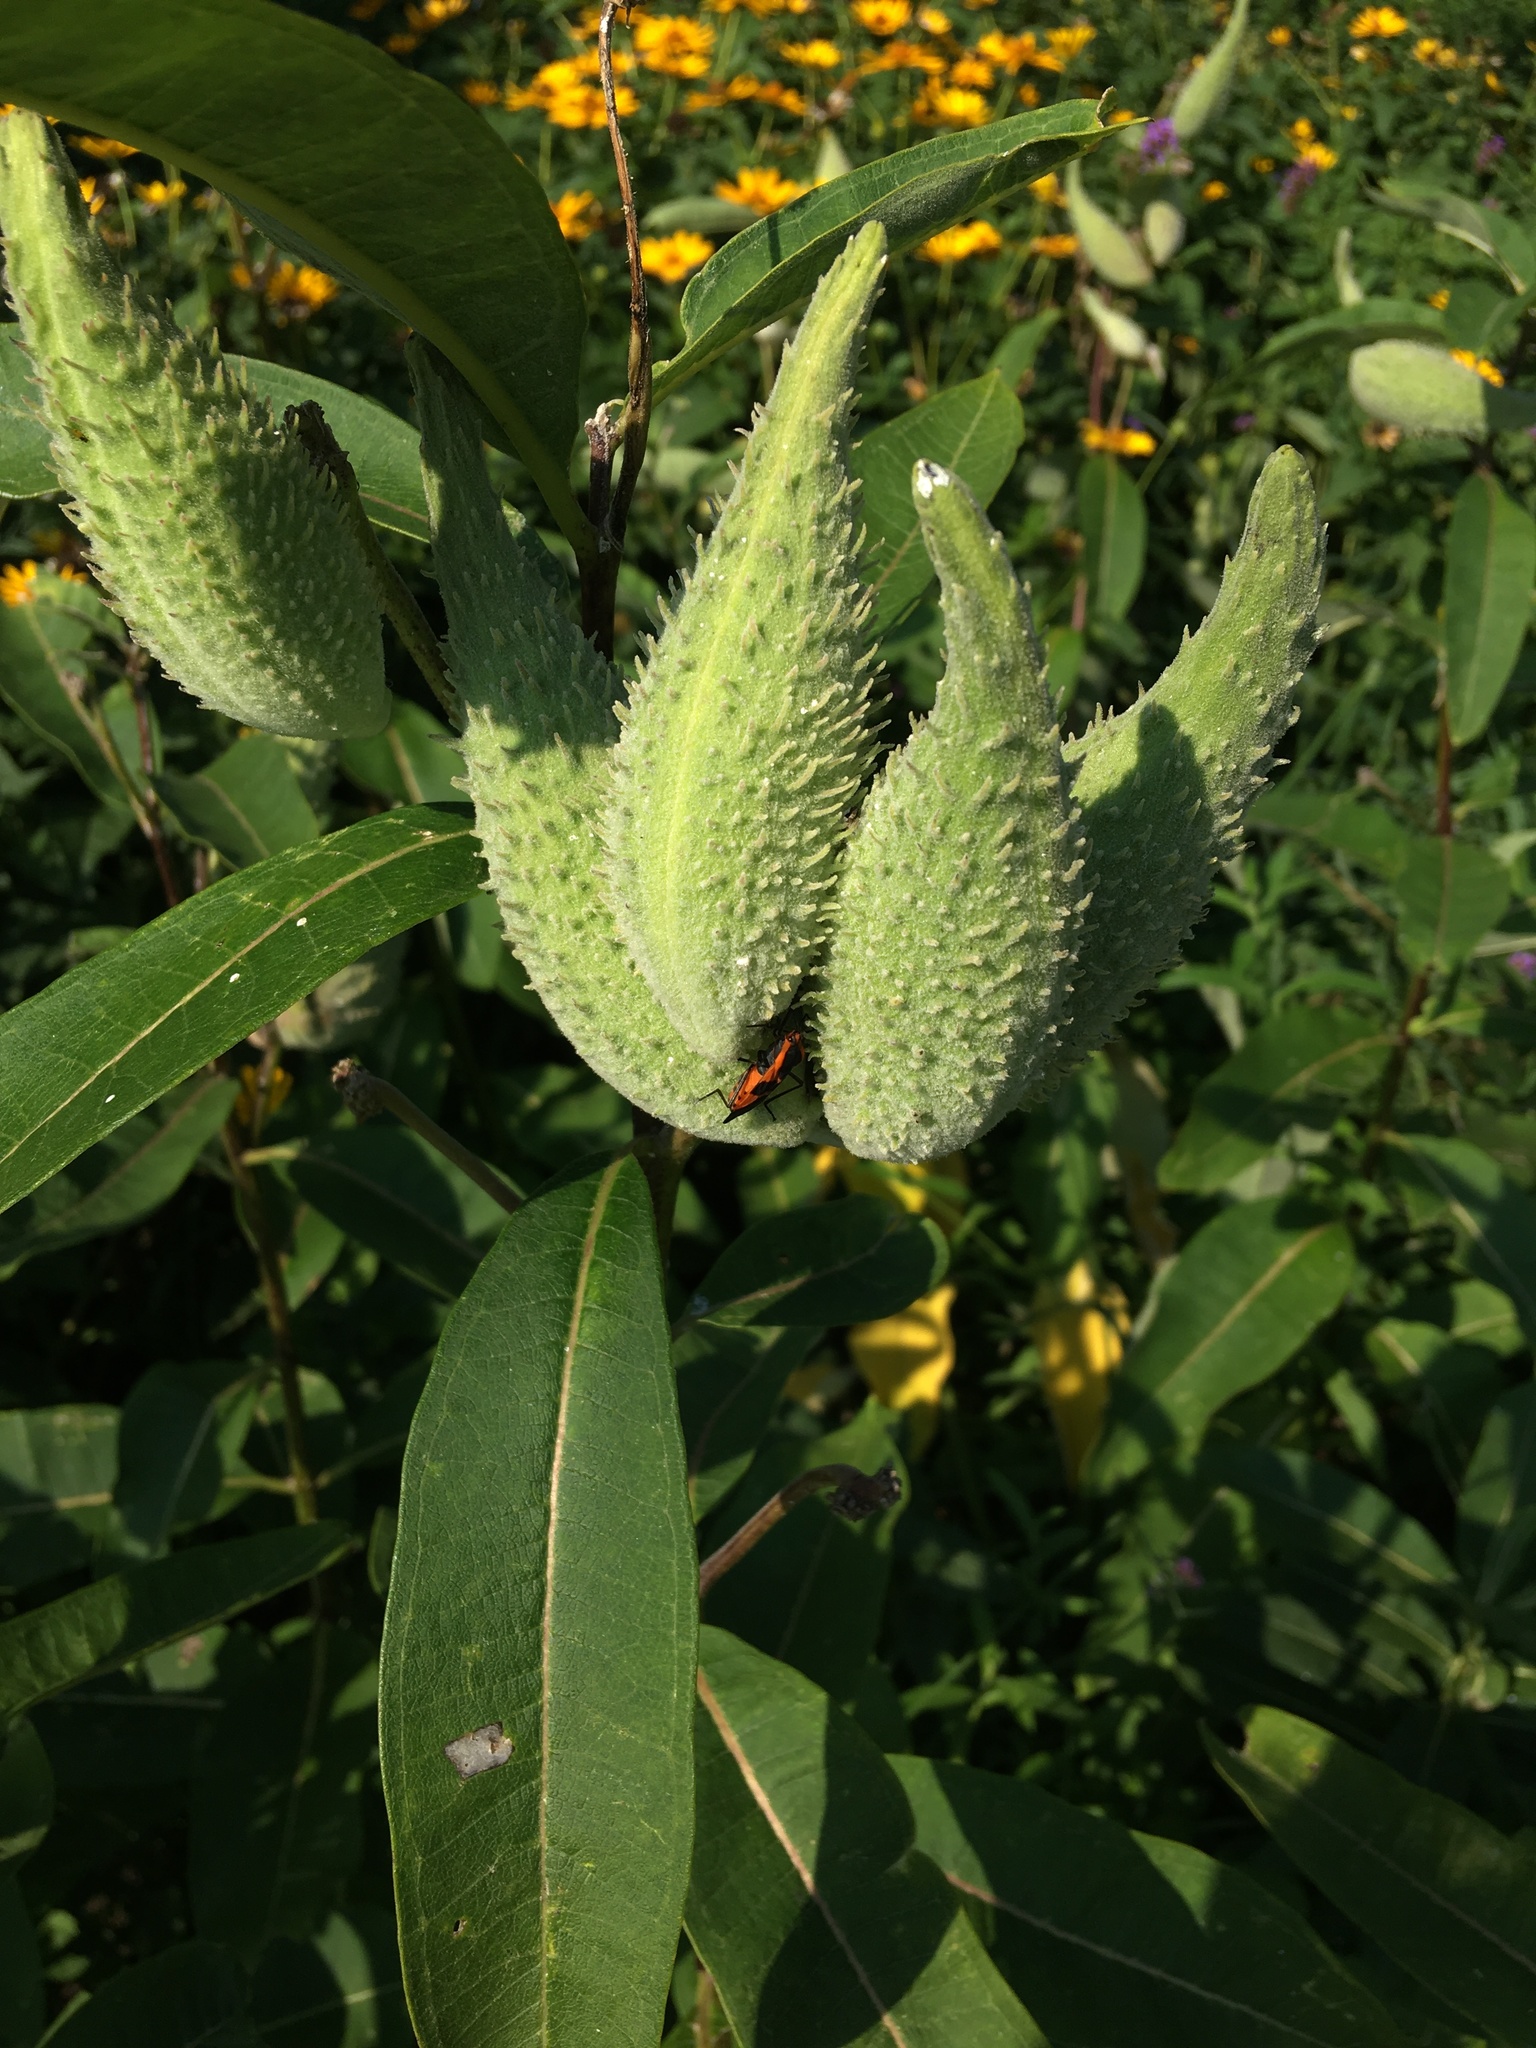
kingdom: Plantae
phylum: Tracheophyta
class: Magnoliopsida
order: Gentianales
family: Apocynaceae
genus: Asclepias
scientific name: Asclepias syriaca
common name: Common milkweed
